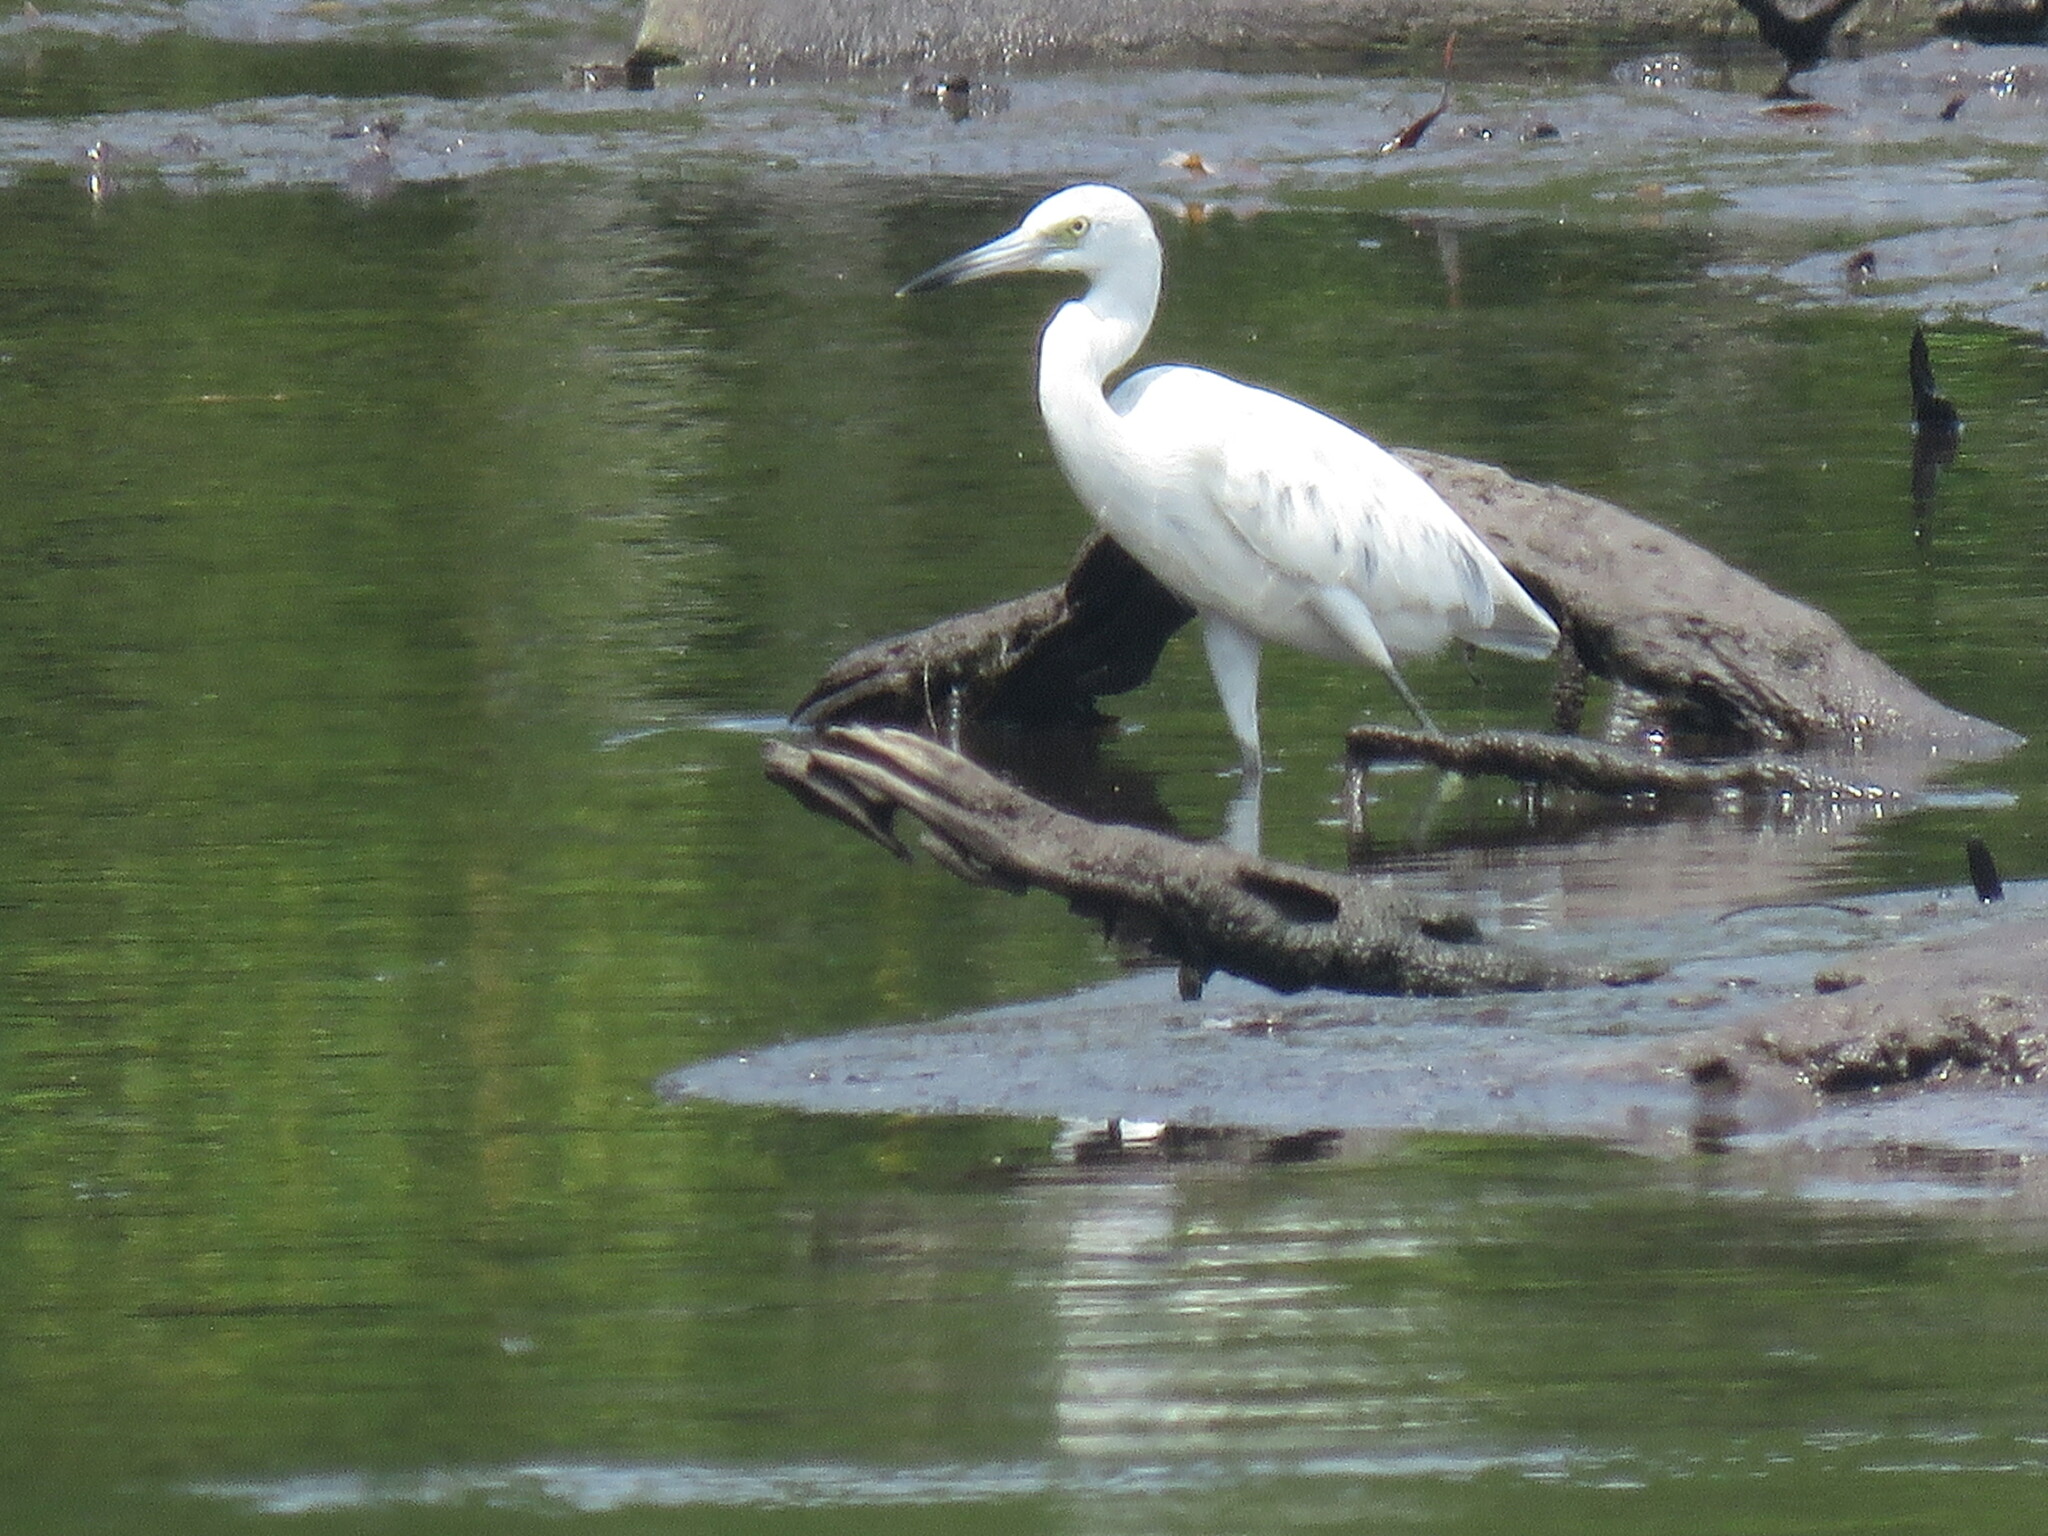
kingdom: Animalia
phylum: Chordata
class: Aves
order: Pelecaniformes
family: Ardeidae
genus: Egretta
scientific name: Egretta caerulea
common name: Little blue heron
